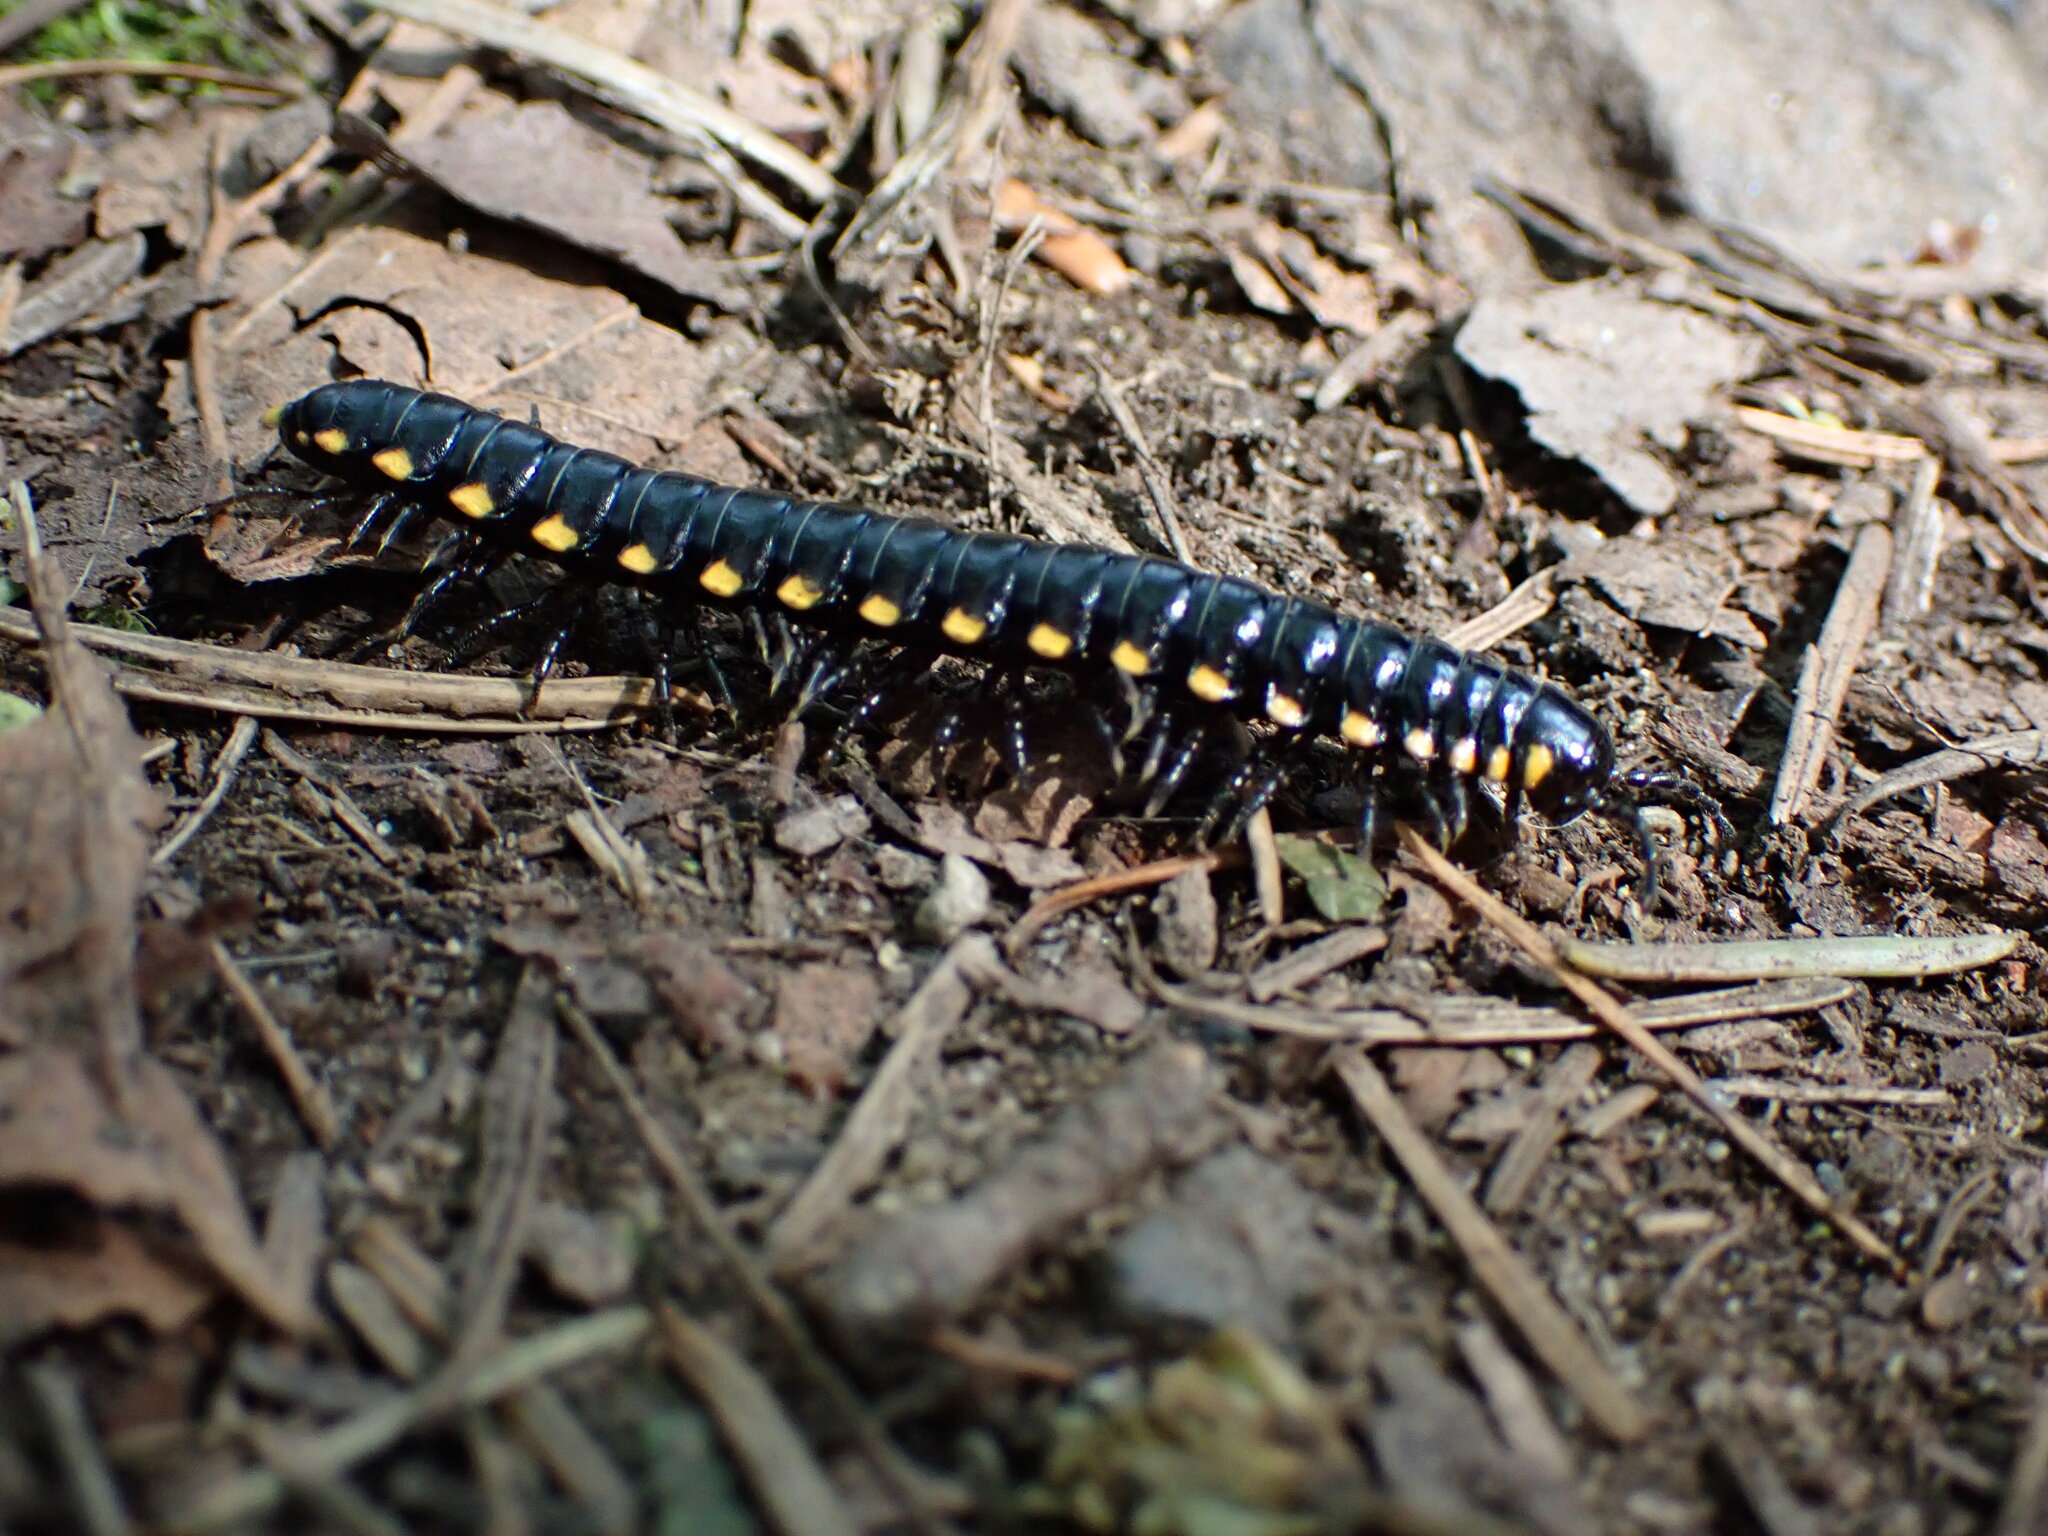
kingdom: Animalia
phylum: Arthropoda
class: Diplopoda
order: Polydesmida
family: Xystodesmidae
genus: Harpaphe
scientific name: Harpaphe haydeniana
